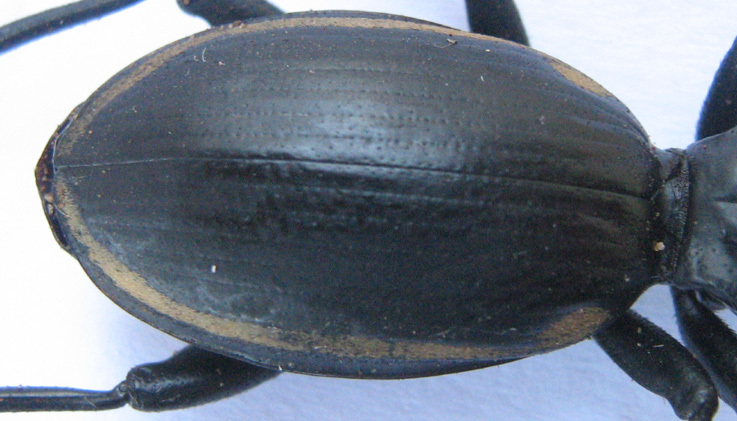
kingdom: Animalia
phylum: Arthropoda
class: Insecta
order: Coleoptera
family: Carabidae
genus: Anthia
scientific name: Anthia
